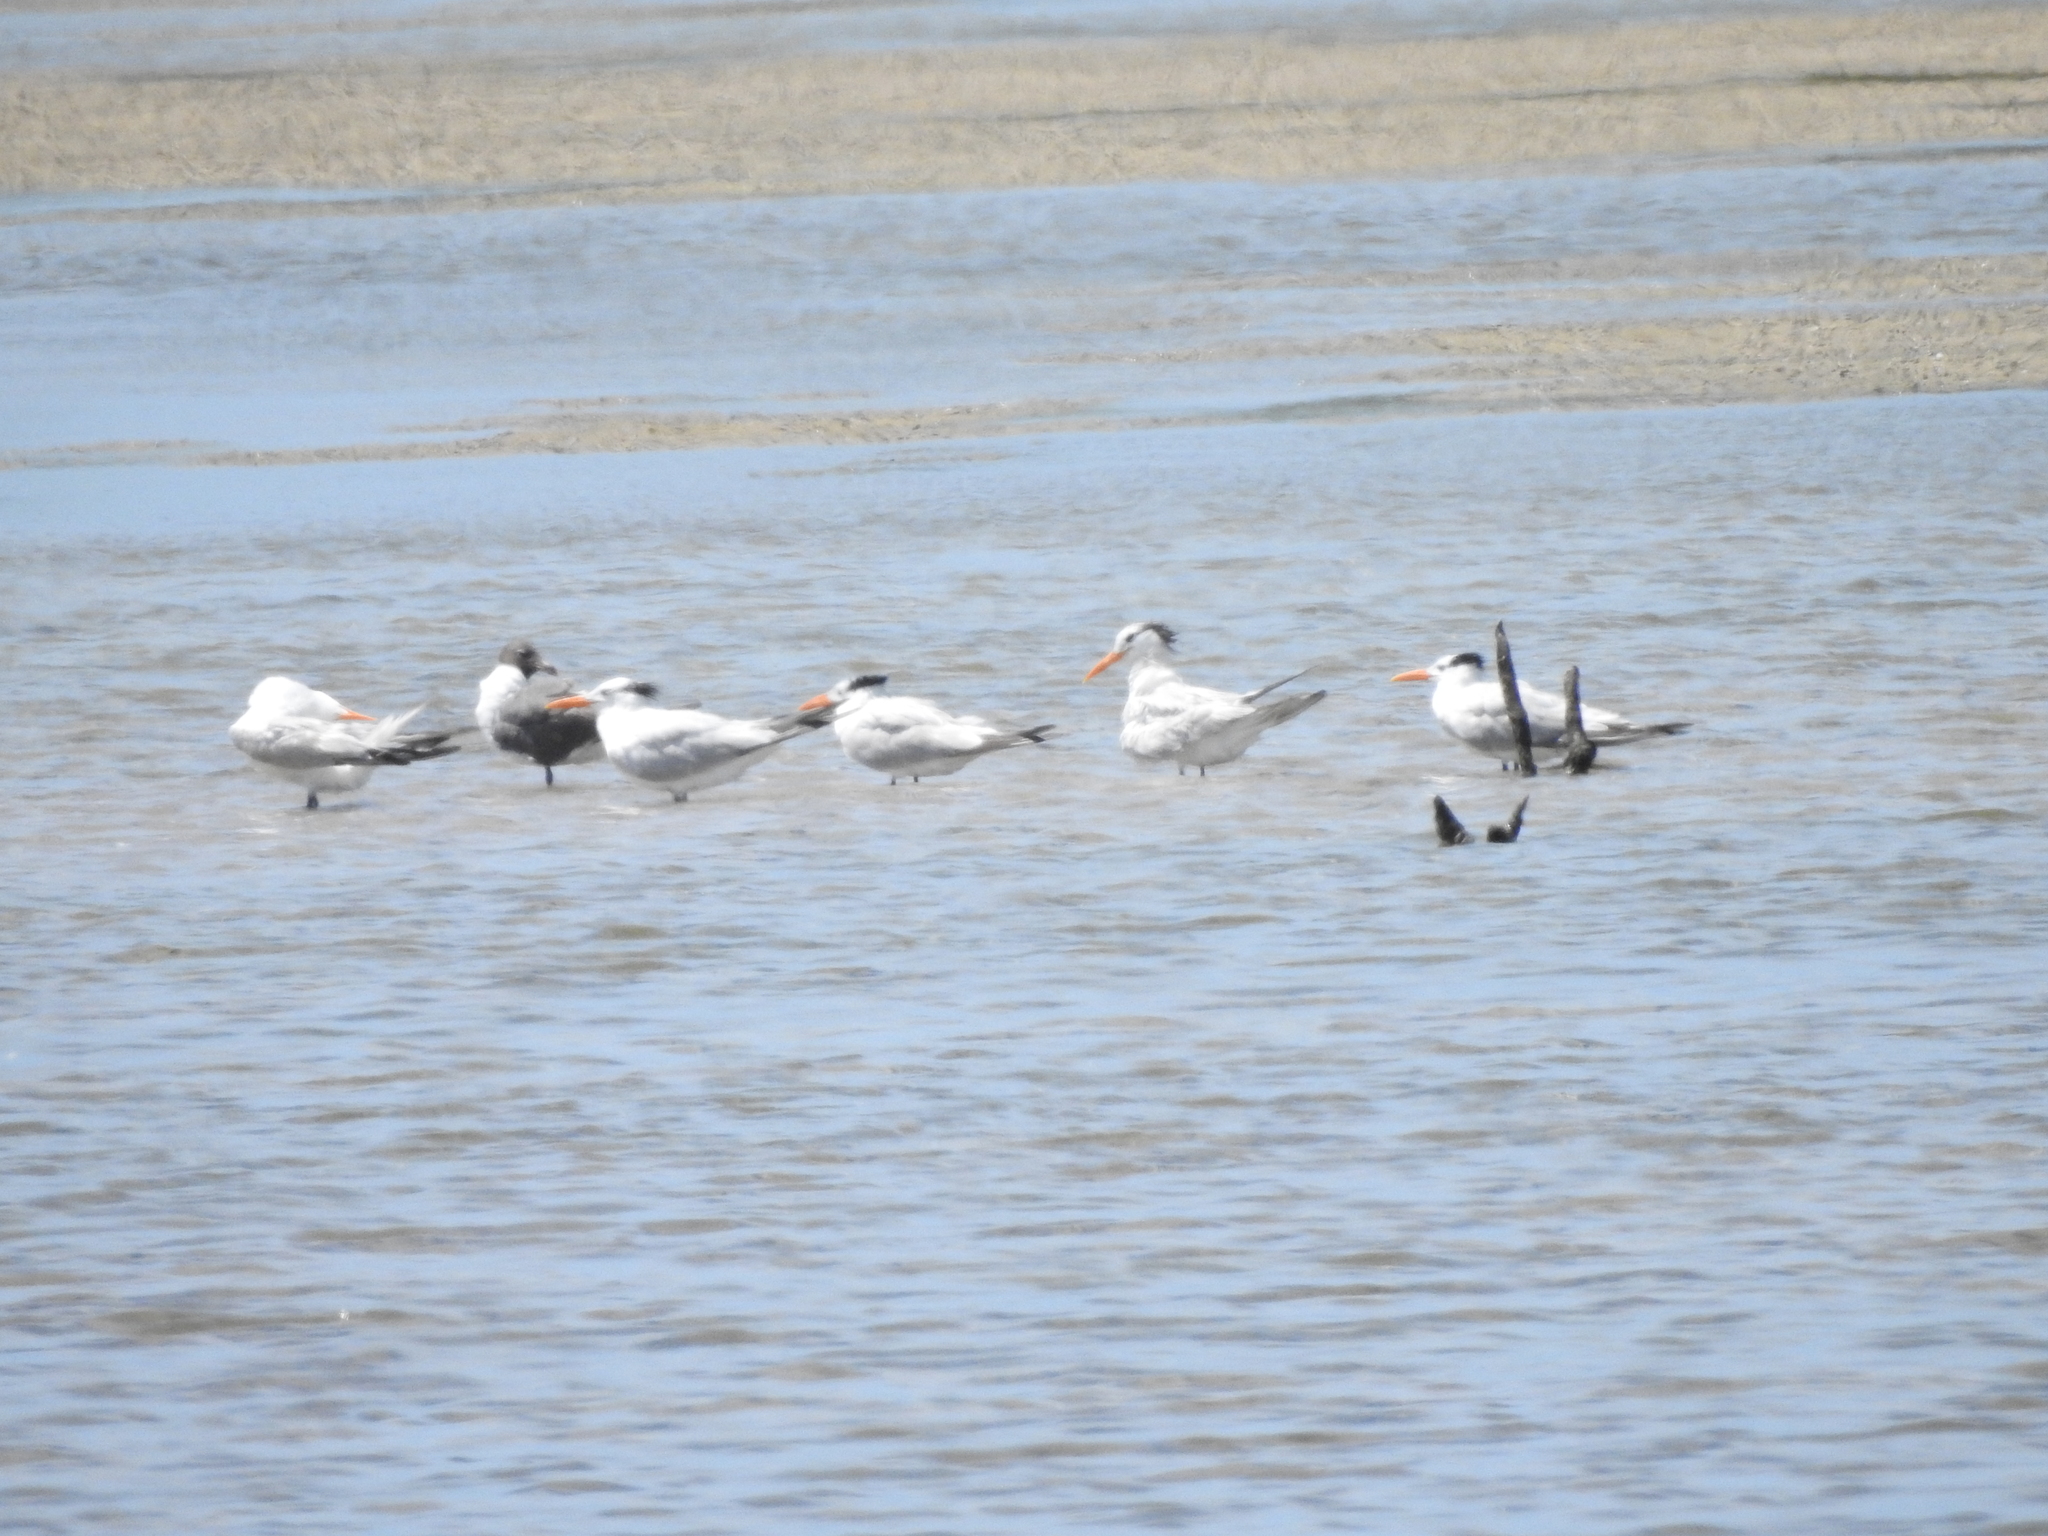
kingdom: Animalia
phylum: Chordata
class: Aves
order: Charadriiformes
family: Laridae
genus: Thalasseus
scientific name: Thalasseus maximus
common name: Royal tern
